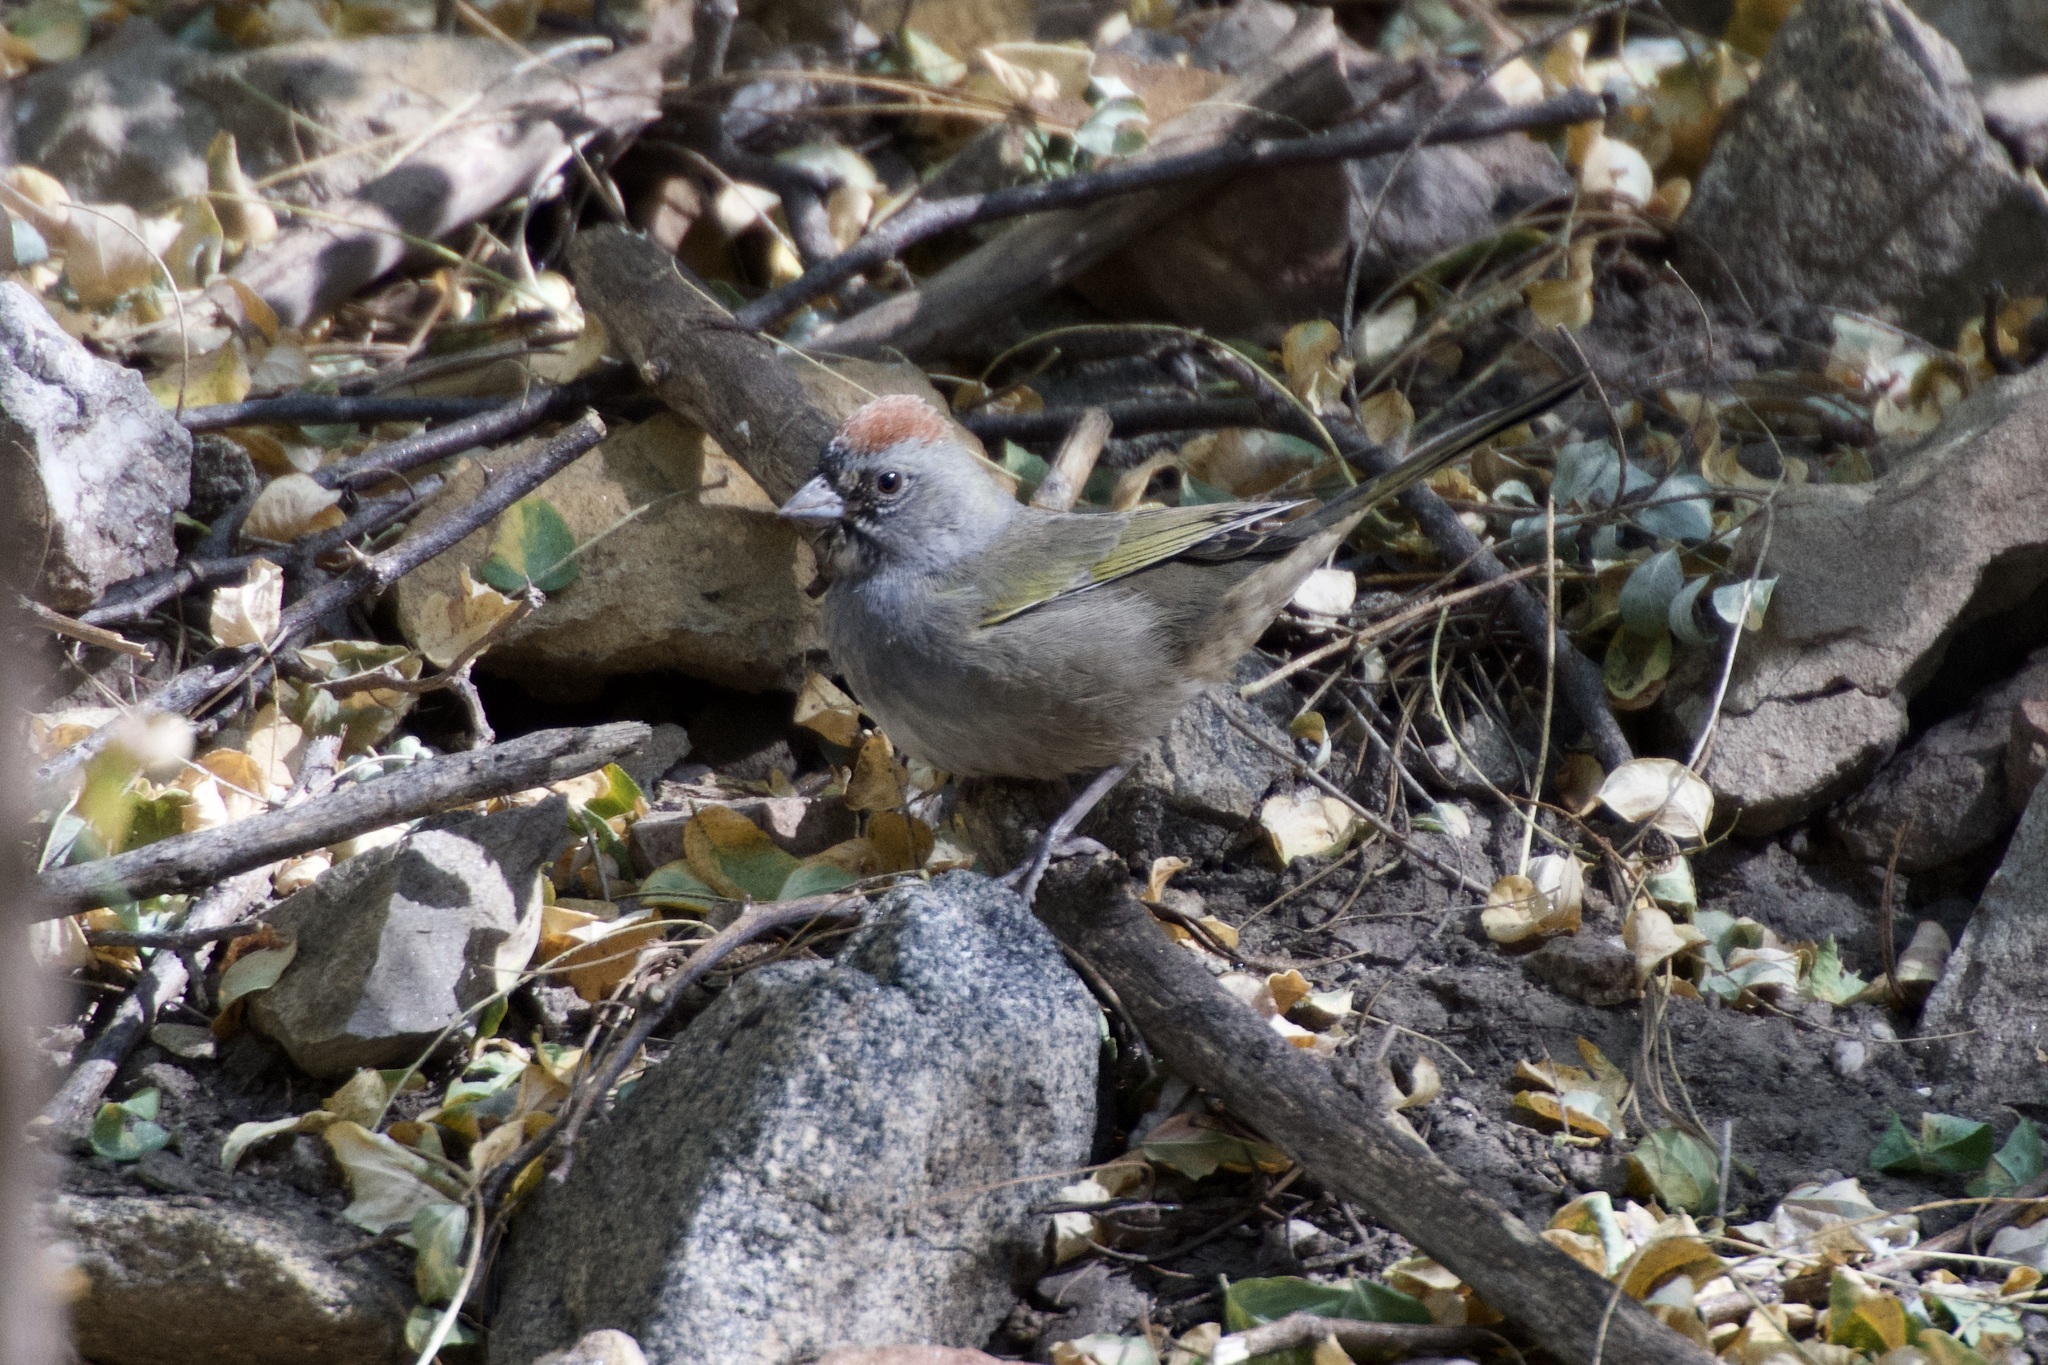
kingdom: Animalia
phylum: Chordata
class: Aves
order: Passeriformes
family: Passerellidae
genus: Pipilo
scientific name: Pipilo chlorurus
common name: Green-tailed towhee
